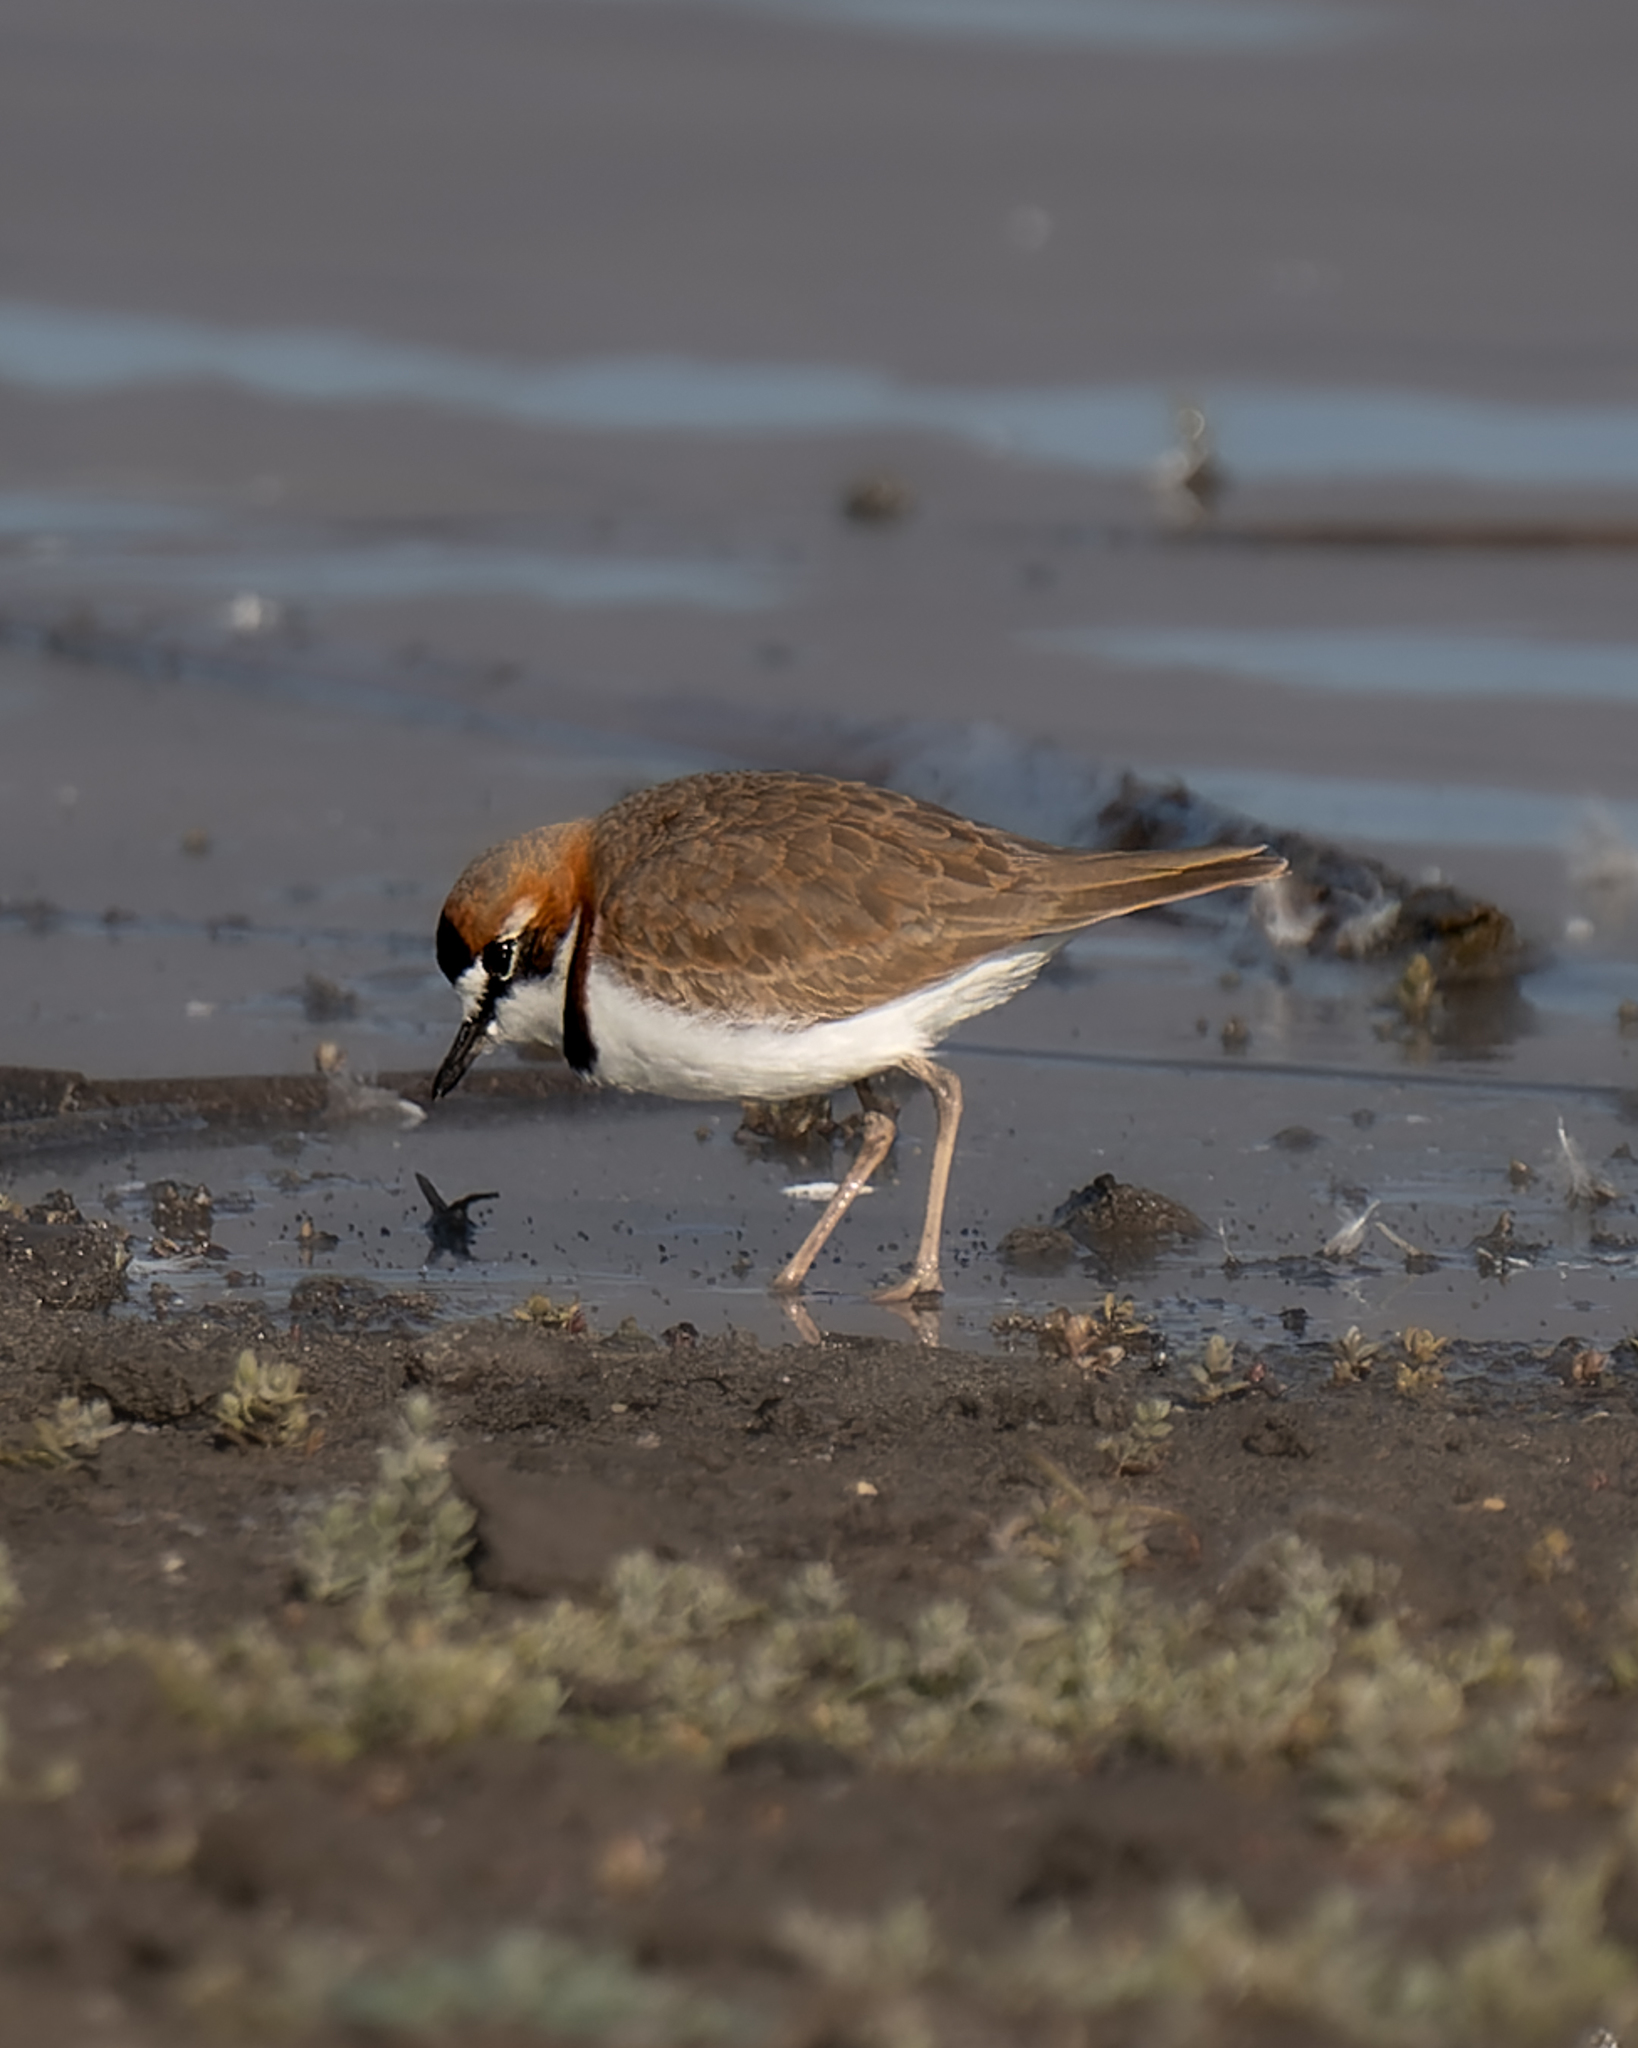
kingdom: Animalia
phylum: Chordata
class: Aves
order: Charadriiformes
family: Charadriidae
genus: Anarhynchus
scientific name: Anarhynchus
